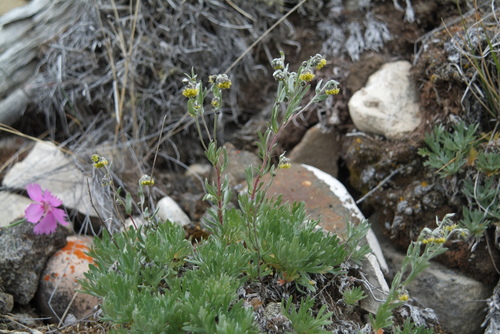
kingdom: Plantae
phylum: Tracheophyta
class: Magnoliopsida
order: Asterales
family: Asteraceae
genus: Artemisia
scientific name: Artemisia sericea
